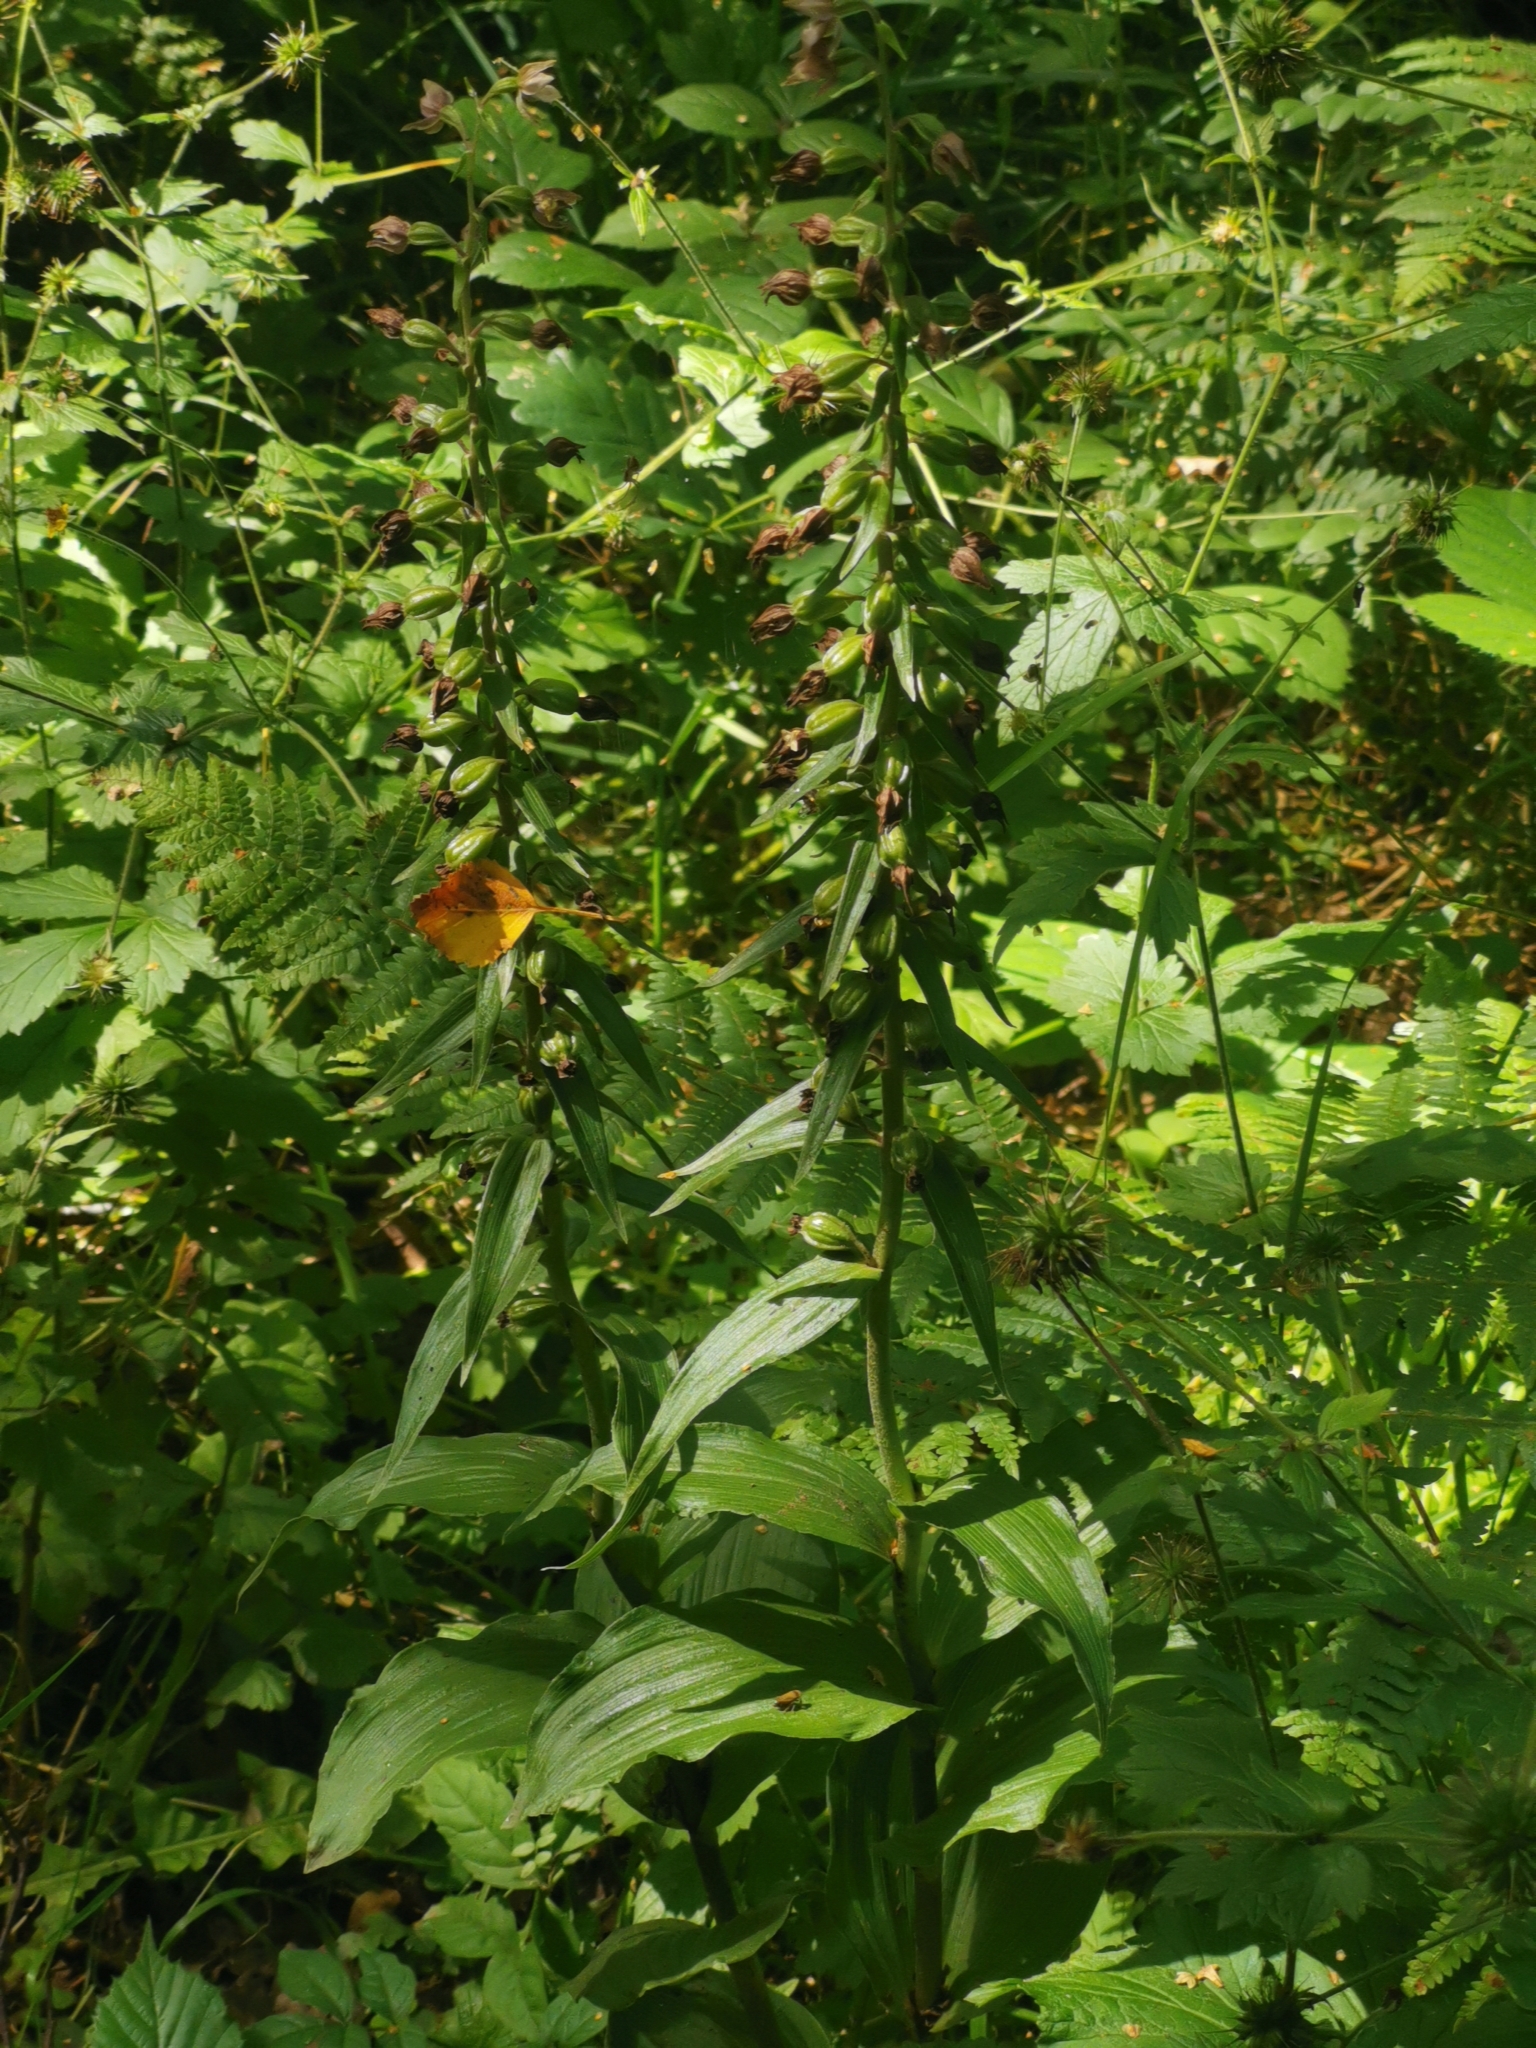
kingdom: Plantae
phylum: Tracheophyta
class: Liliopsida
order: Asparagales
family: Orchidaceae
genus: Epipactis
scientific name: Epipactis helleborine
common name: Broad-leaved helleborine
